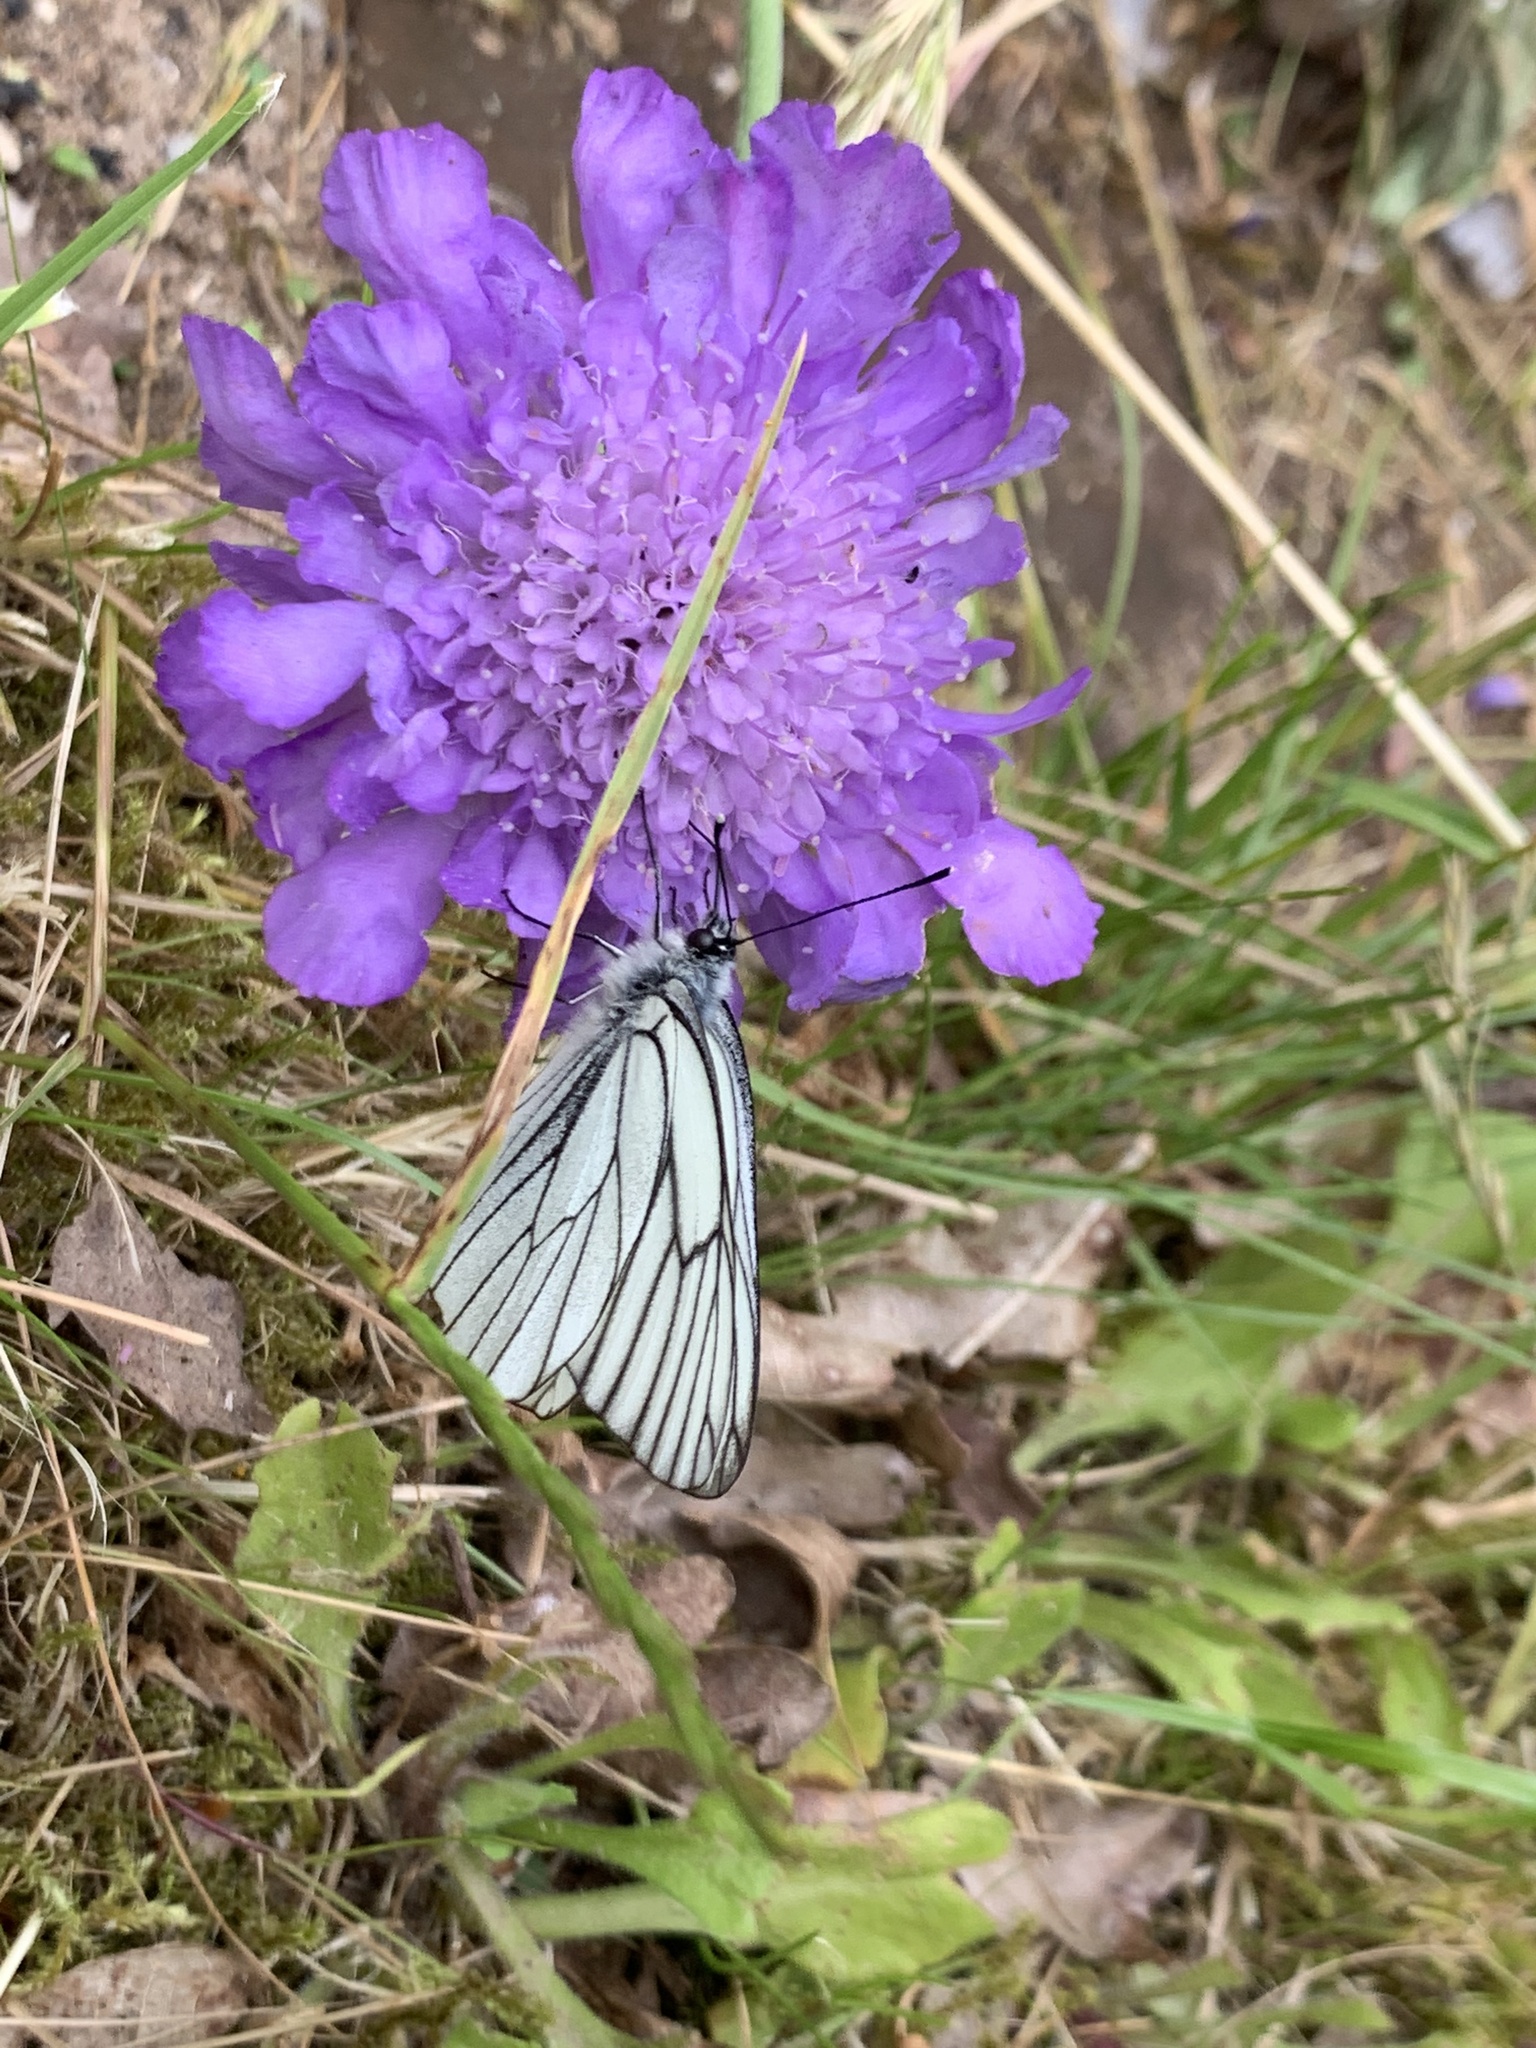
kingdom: Animalia
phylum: Arthropoda
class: Insecta
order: Lepidoptera
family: Pieridae
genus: Aporia
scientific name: Aporia crataegi
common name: Black-veined white
